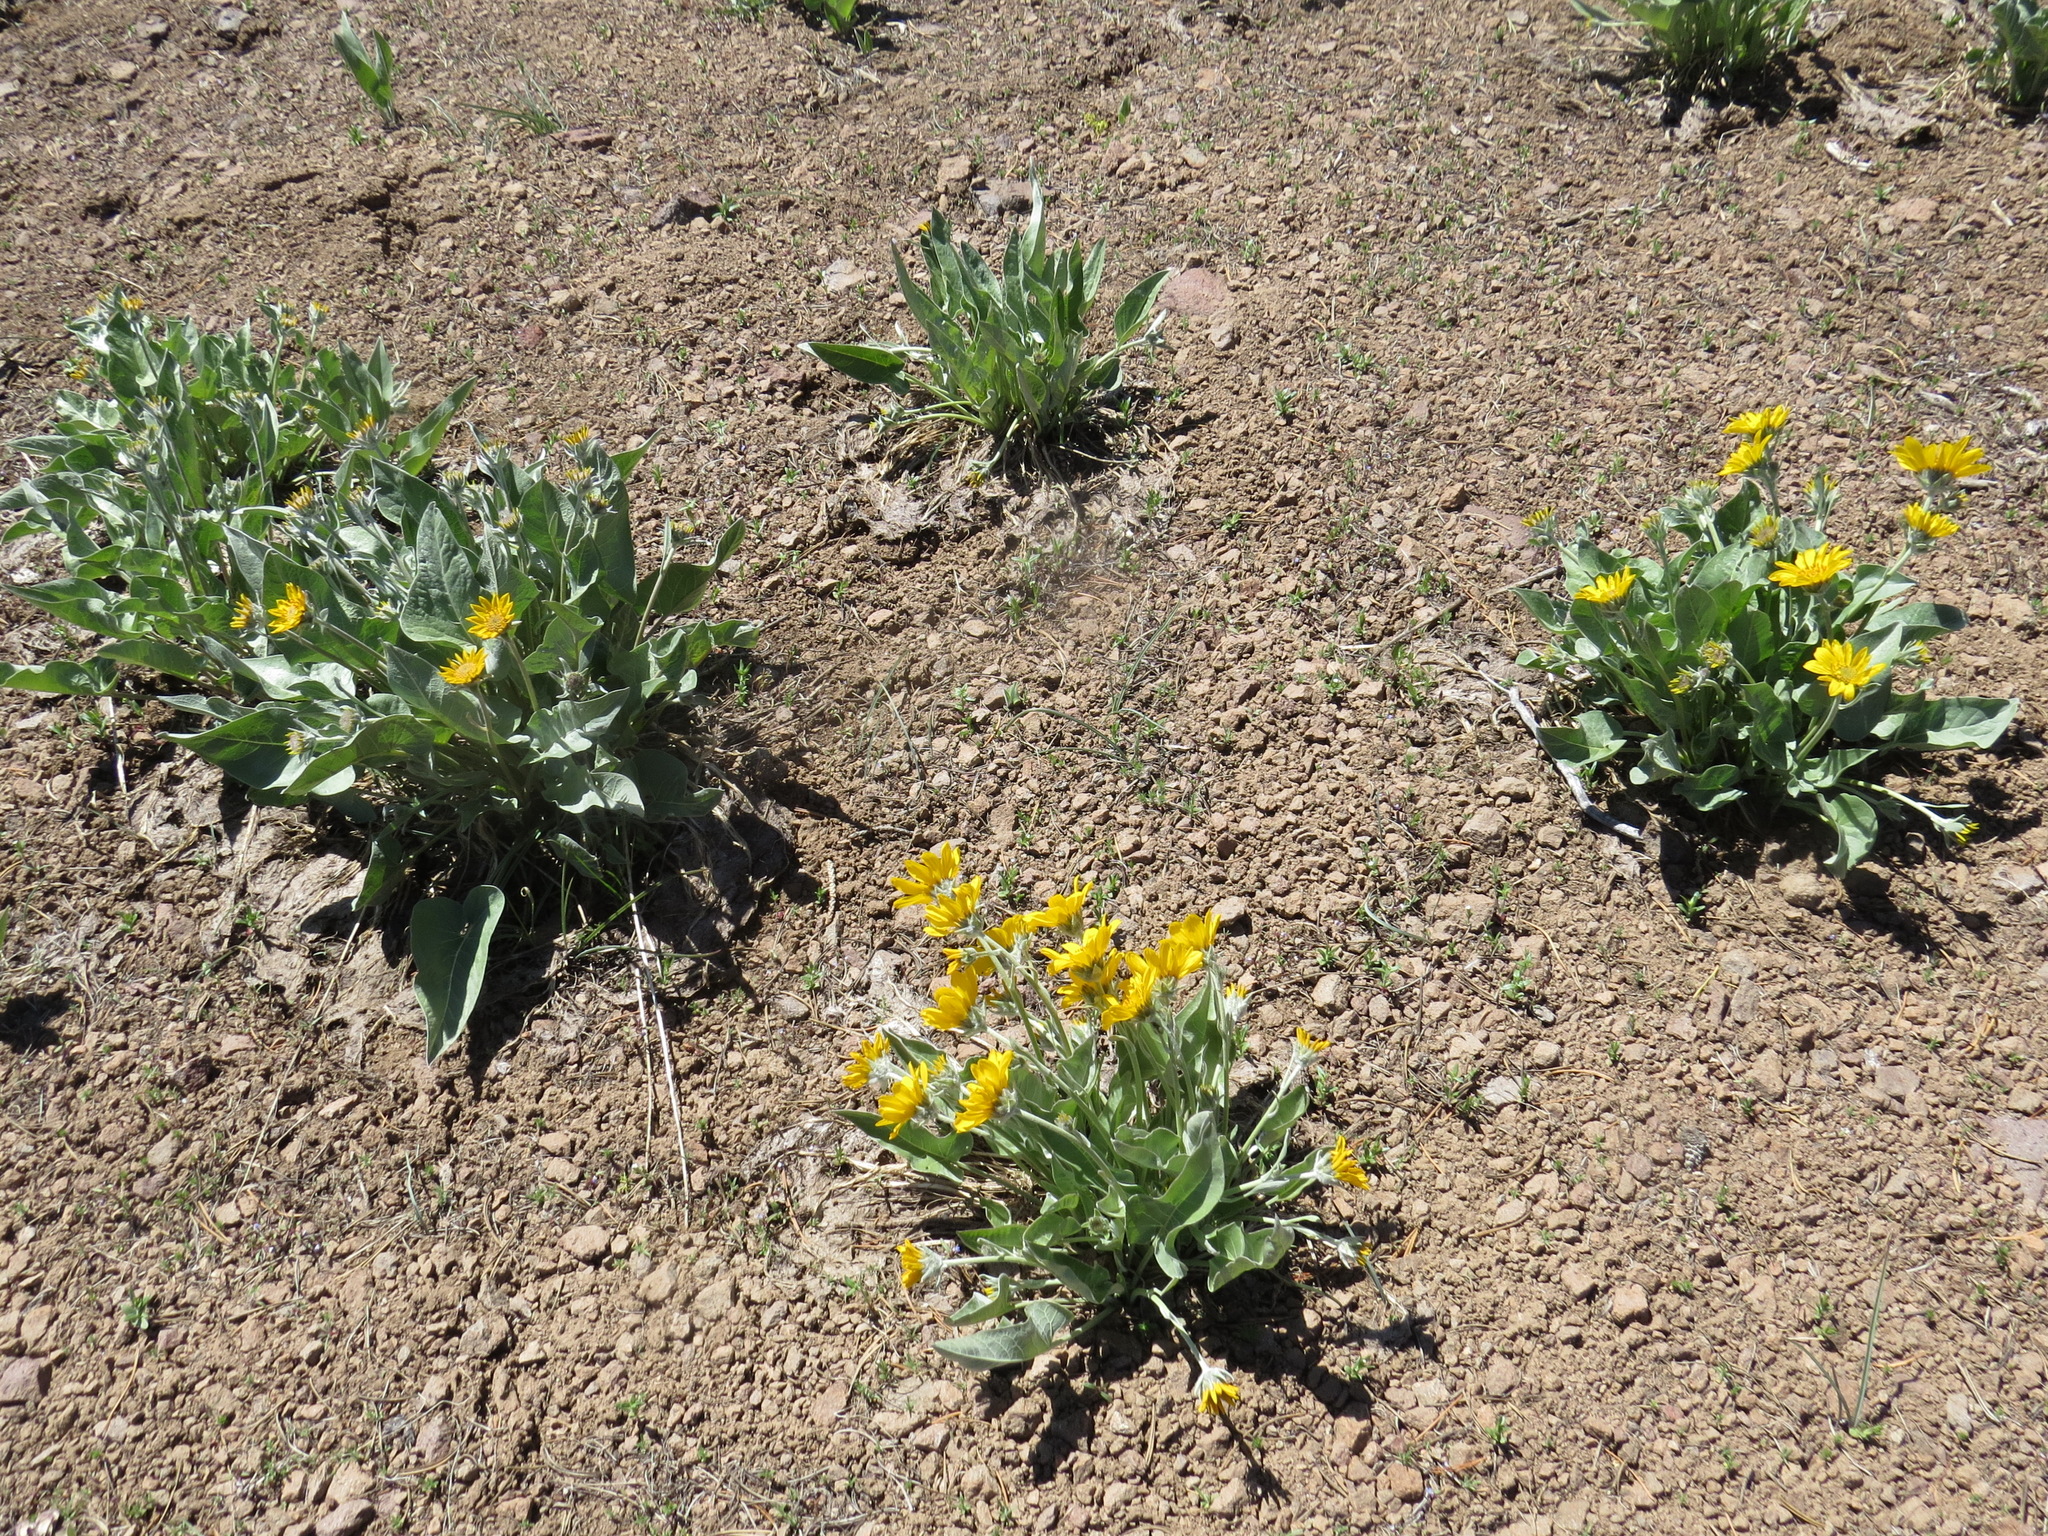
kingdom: Plantae
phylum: Tracheophyta
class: Magnoliopsida
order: Asterales
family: Asteraceae
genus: Wyethia
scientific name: Wyethia sagittata
